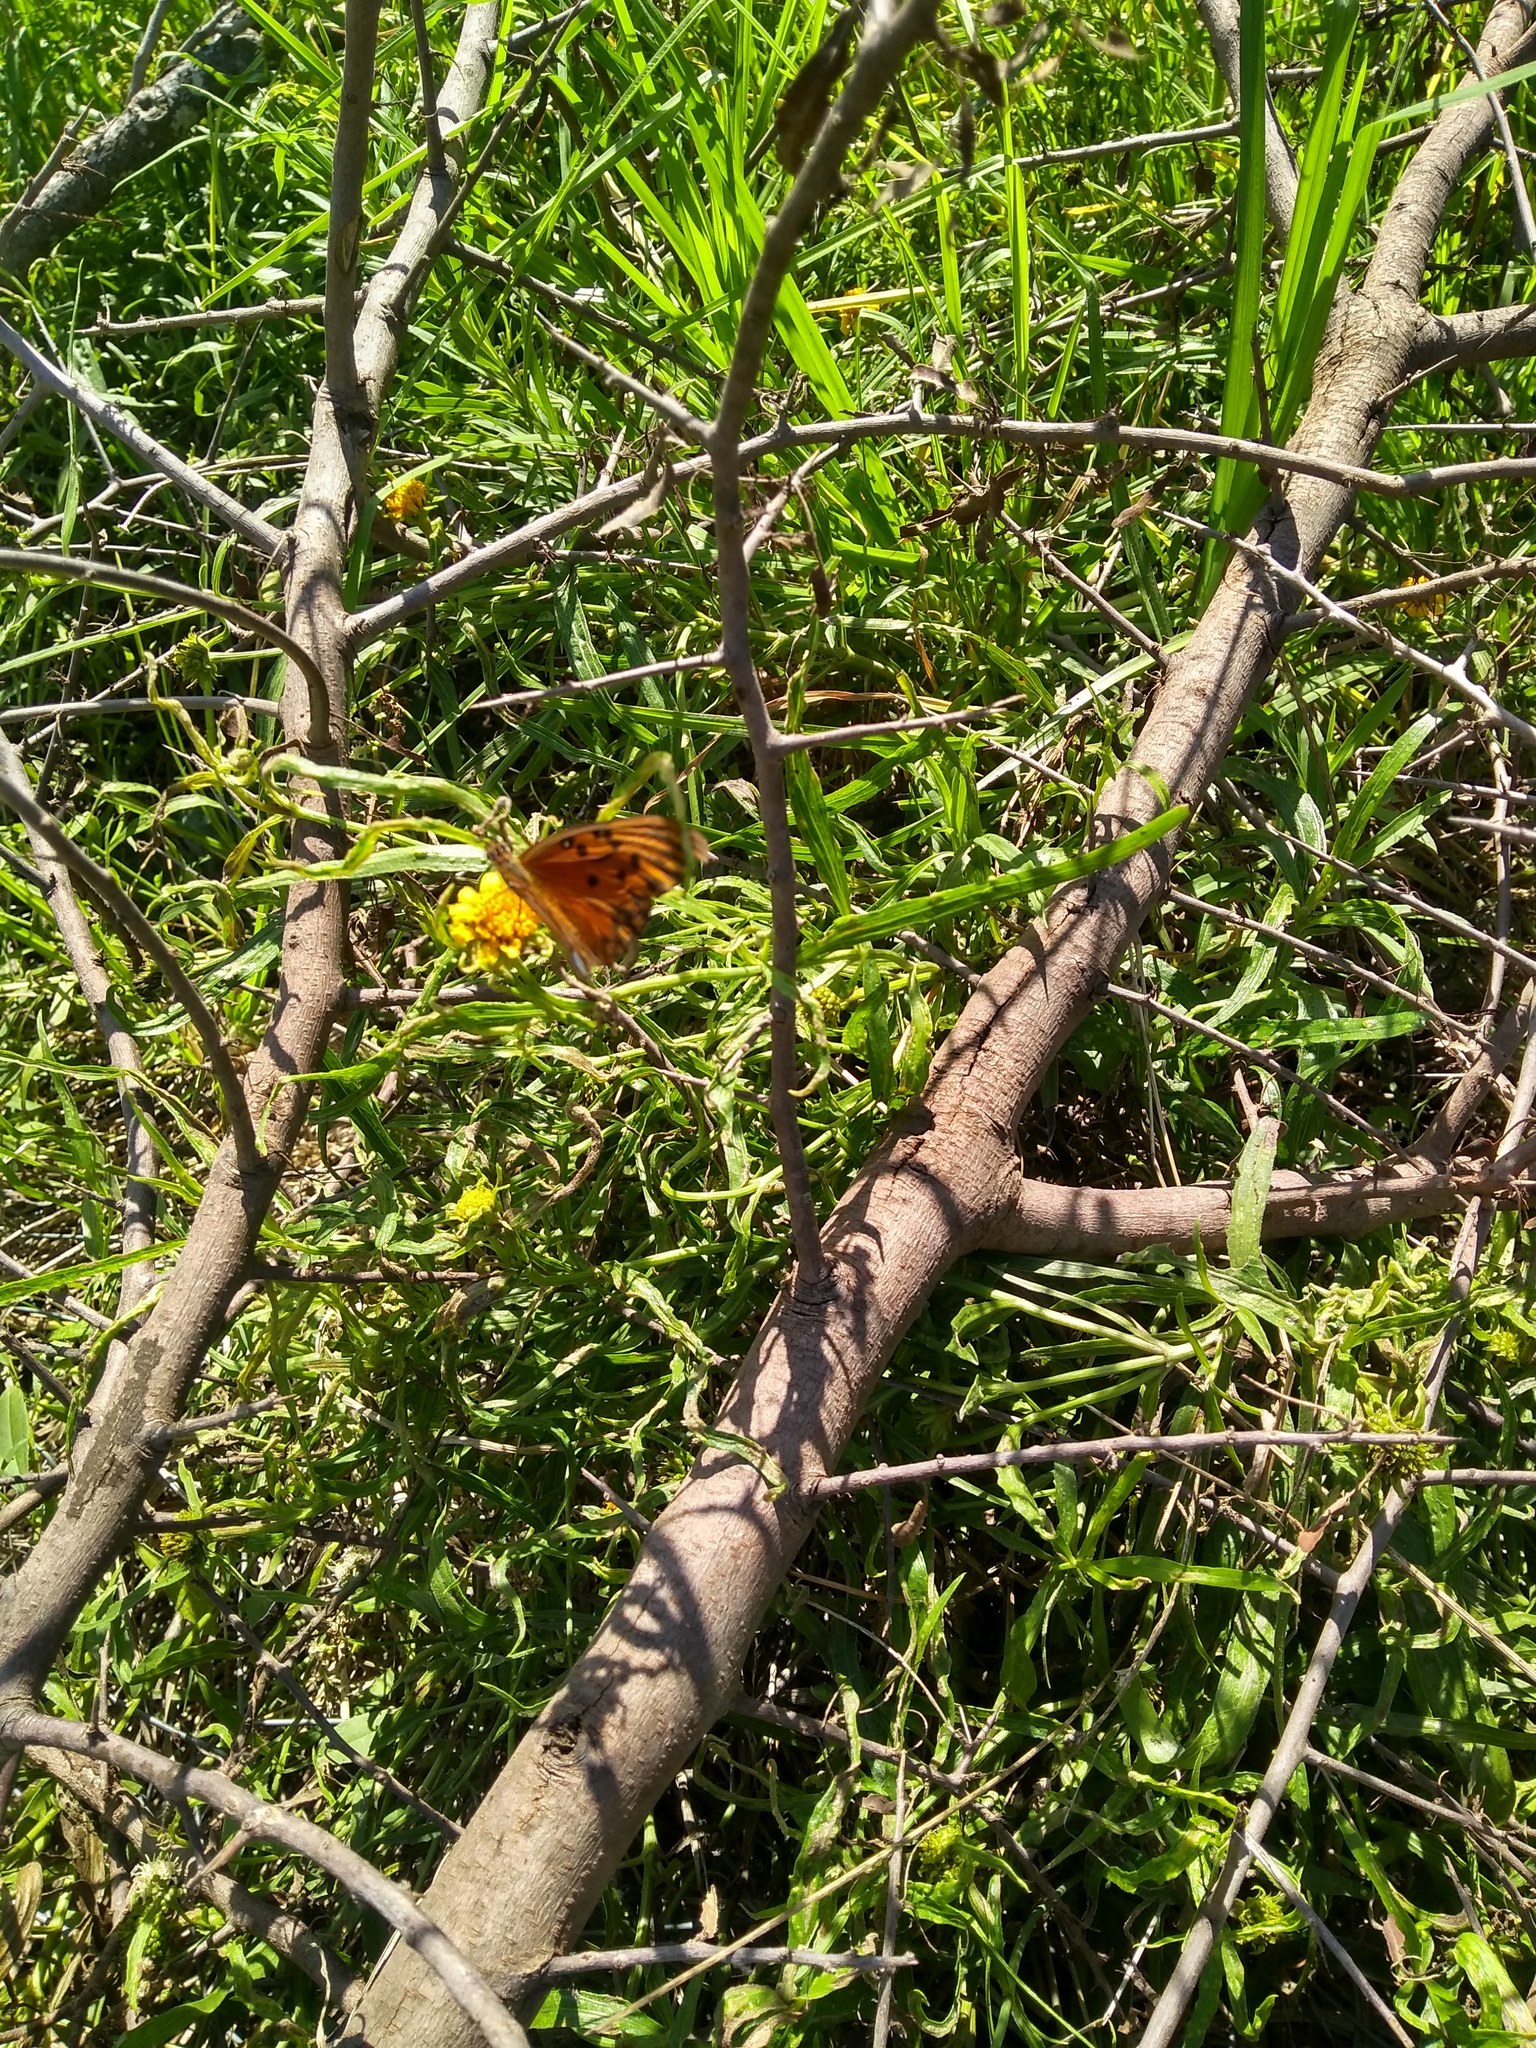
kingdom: Animalia
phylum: Arthropoda
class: Insecta
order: Lepidoptera
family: Nymphalidae
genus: Dione
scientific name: Dione vanillae
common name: Gulf fritillary
